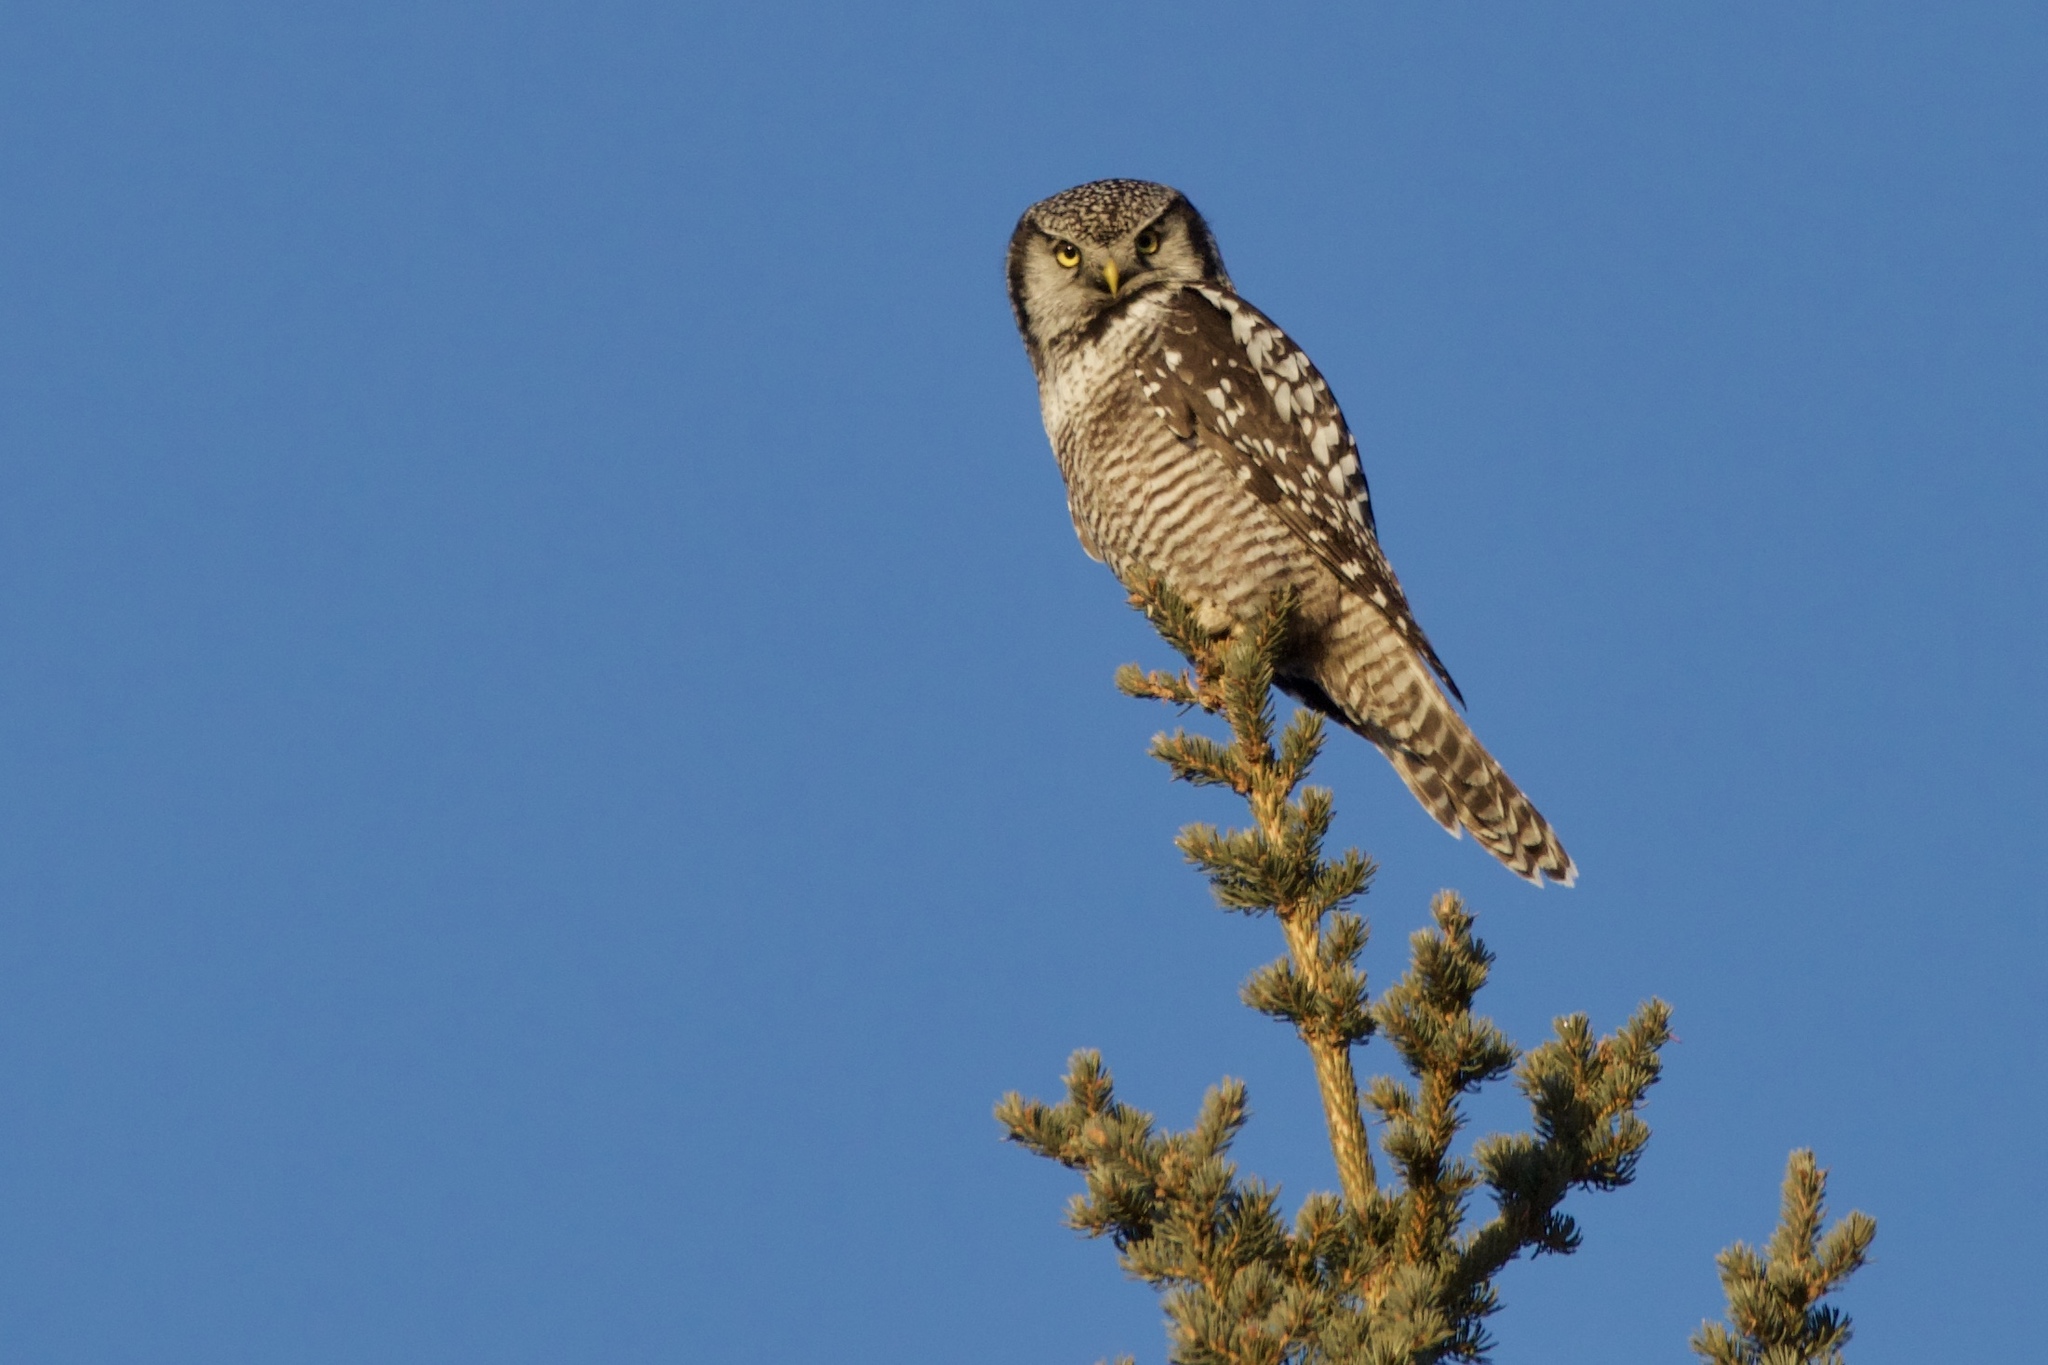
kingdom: Animalia
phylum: Chordata
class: Aves
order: Strigiformes
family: Strigidae
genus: Surnia
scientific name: Surnia ulula
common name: Northern hawk-owl
